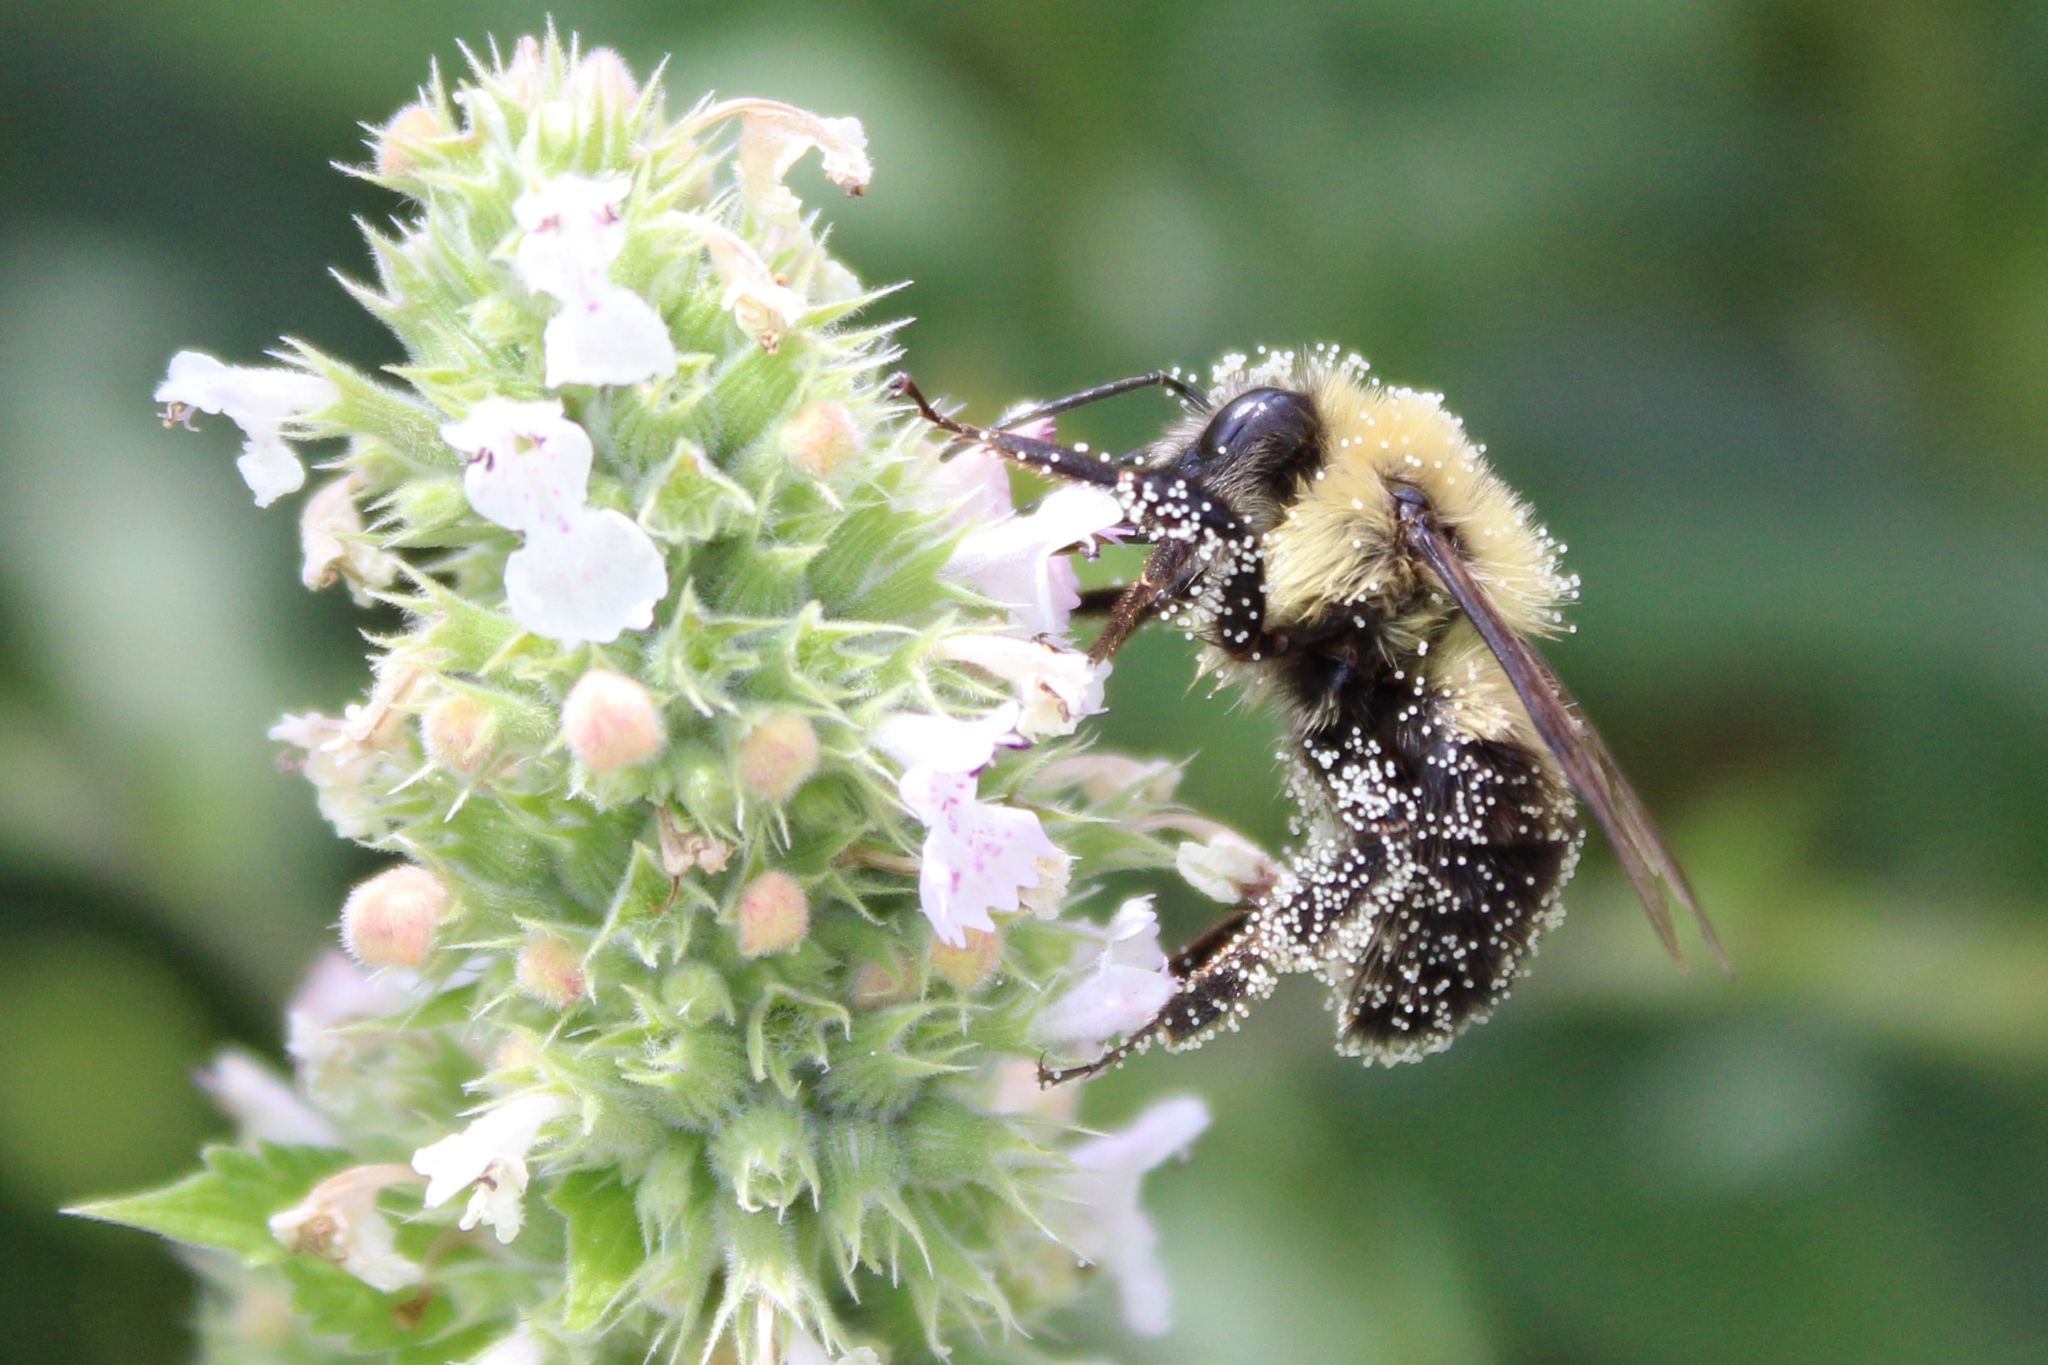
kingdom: Animalia
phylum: Arthropoda
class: Insecta
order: Hymenoptera
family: Apidae
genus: Bombus
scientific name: Bombus bimaculatus
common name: Two-spotted bumble bee
